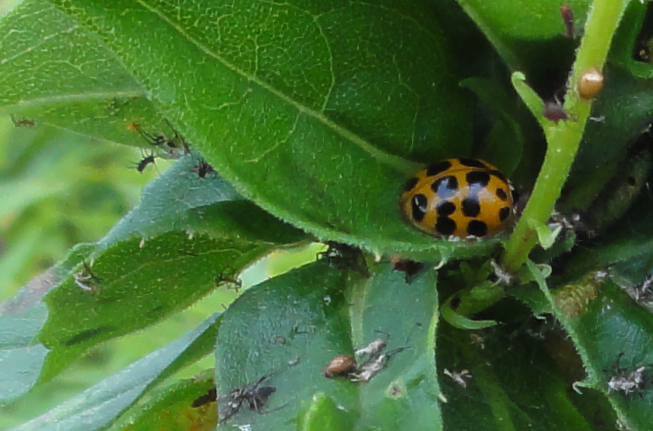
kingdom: Animalia
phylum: Arthropoda
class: Insecta
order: Coleoptera
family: Coccinellidae
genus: Harmonia
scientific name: Harmonia axyridis
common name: Harlequin ladybird
